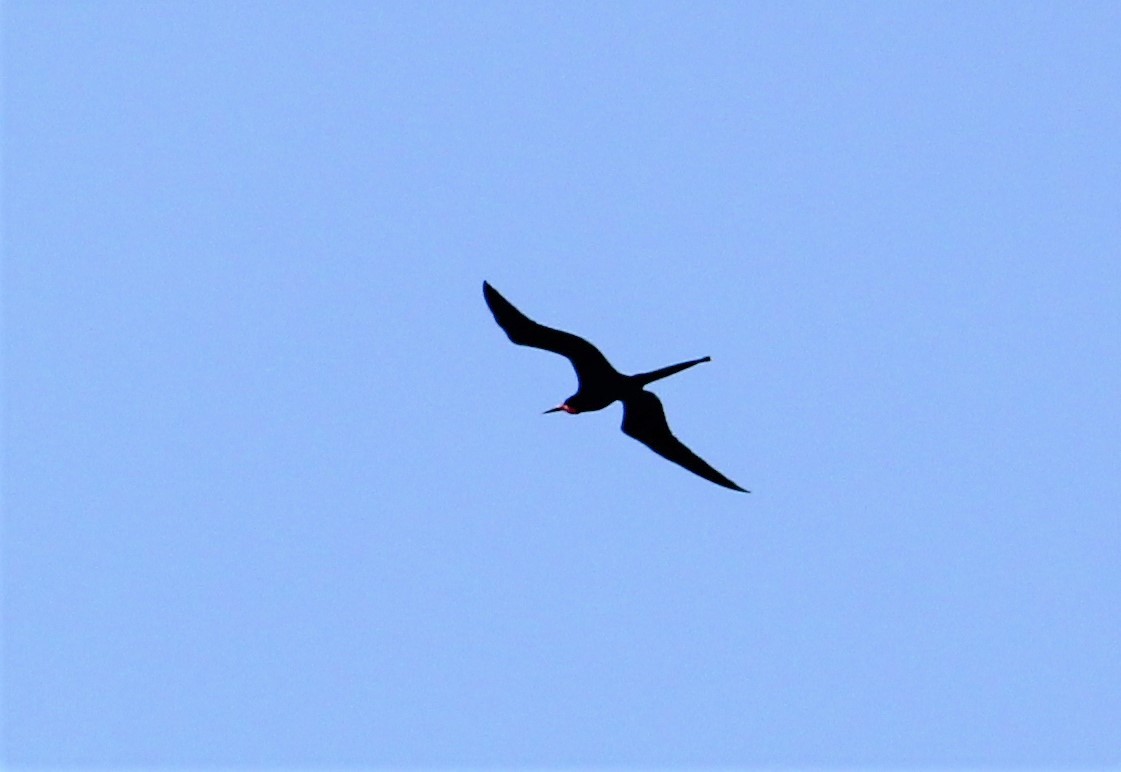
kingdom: Animalia
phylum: Chordata
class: Aves
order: Suliformes
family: Fregatidae
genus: Fregata
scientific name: Fregata magnificens
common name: Magnificent frigatebird
